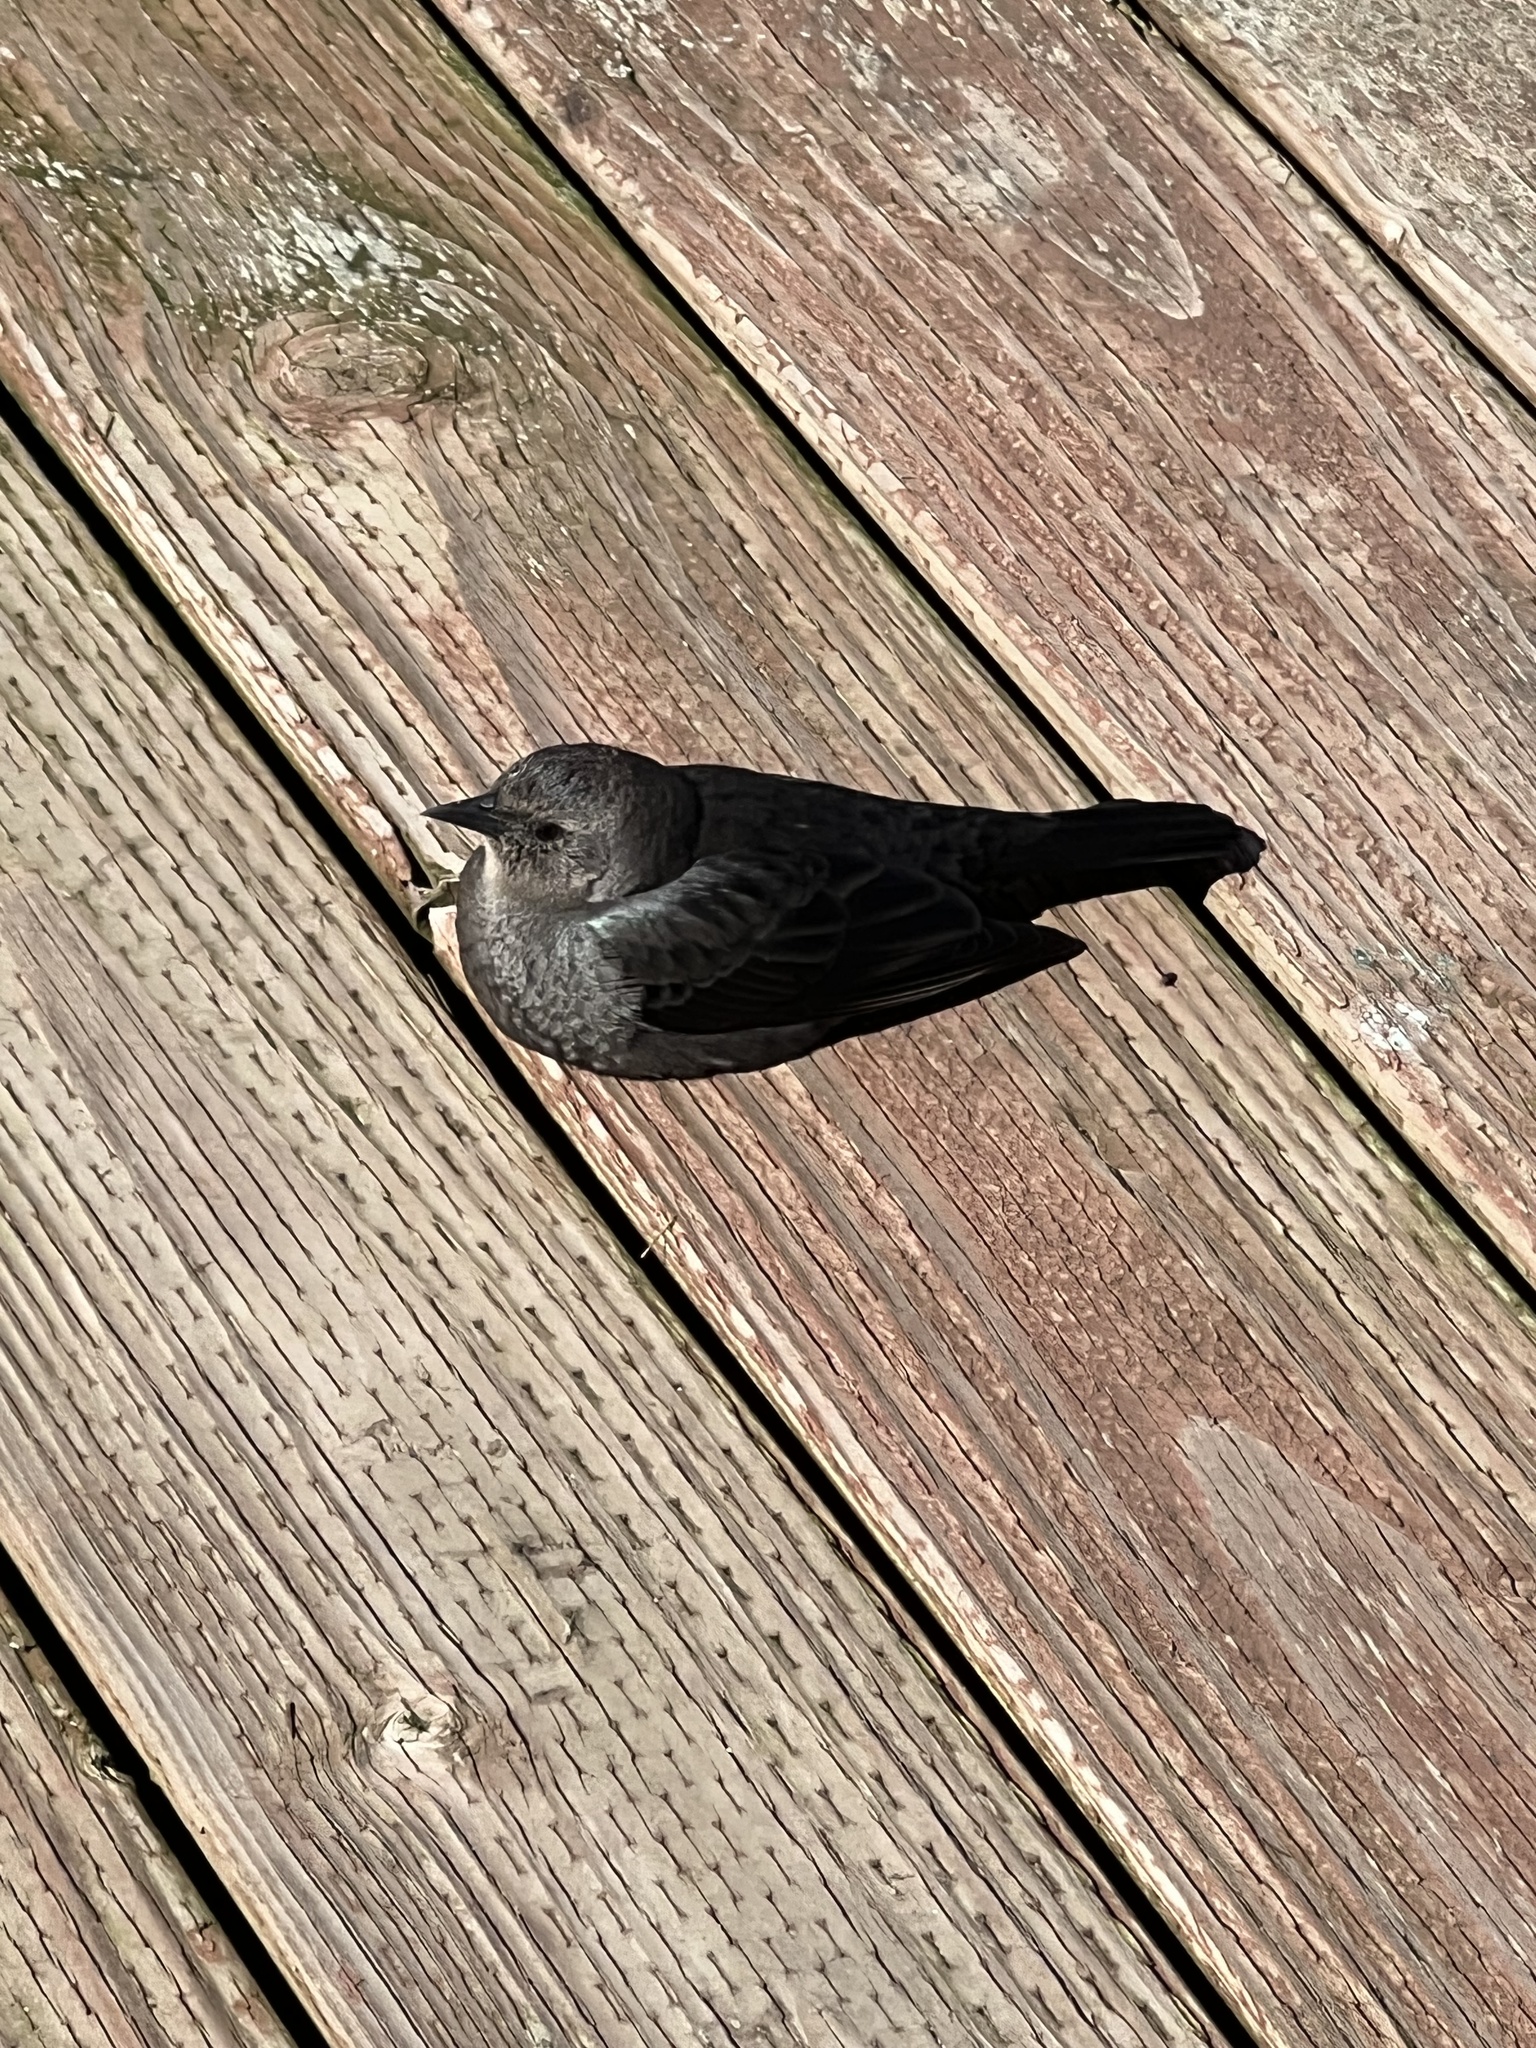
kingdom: Animalia
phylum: Chordata
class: Aves
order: Passeriformes
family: Icteridae
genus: Euphagus
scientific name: Euphagus cyanocephalus
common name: Brewer's blackbird
